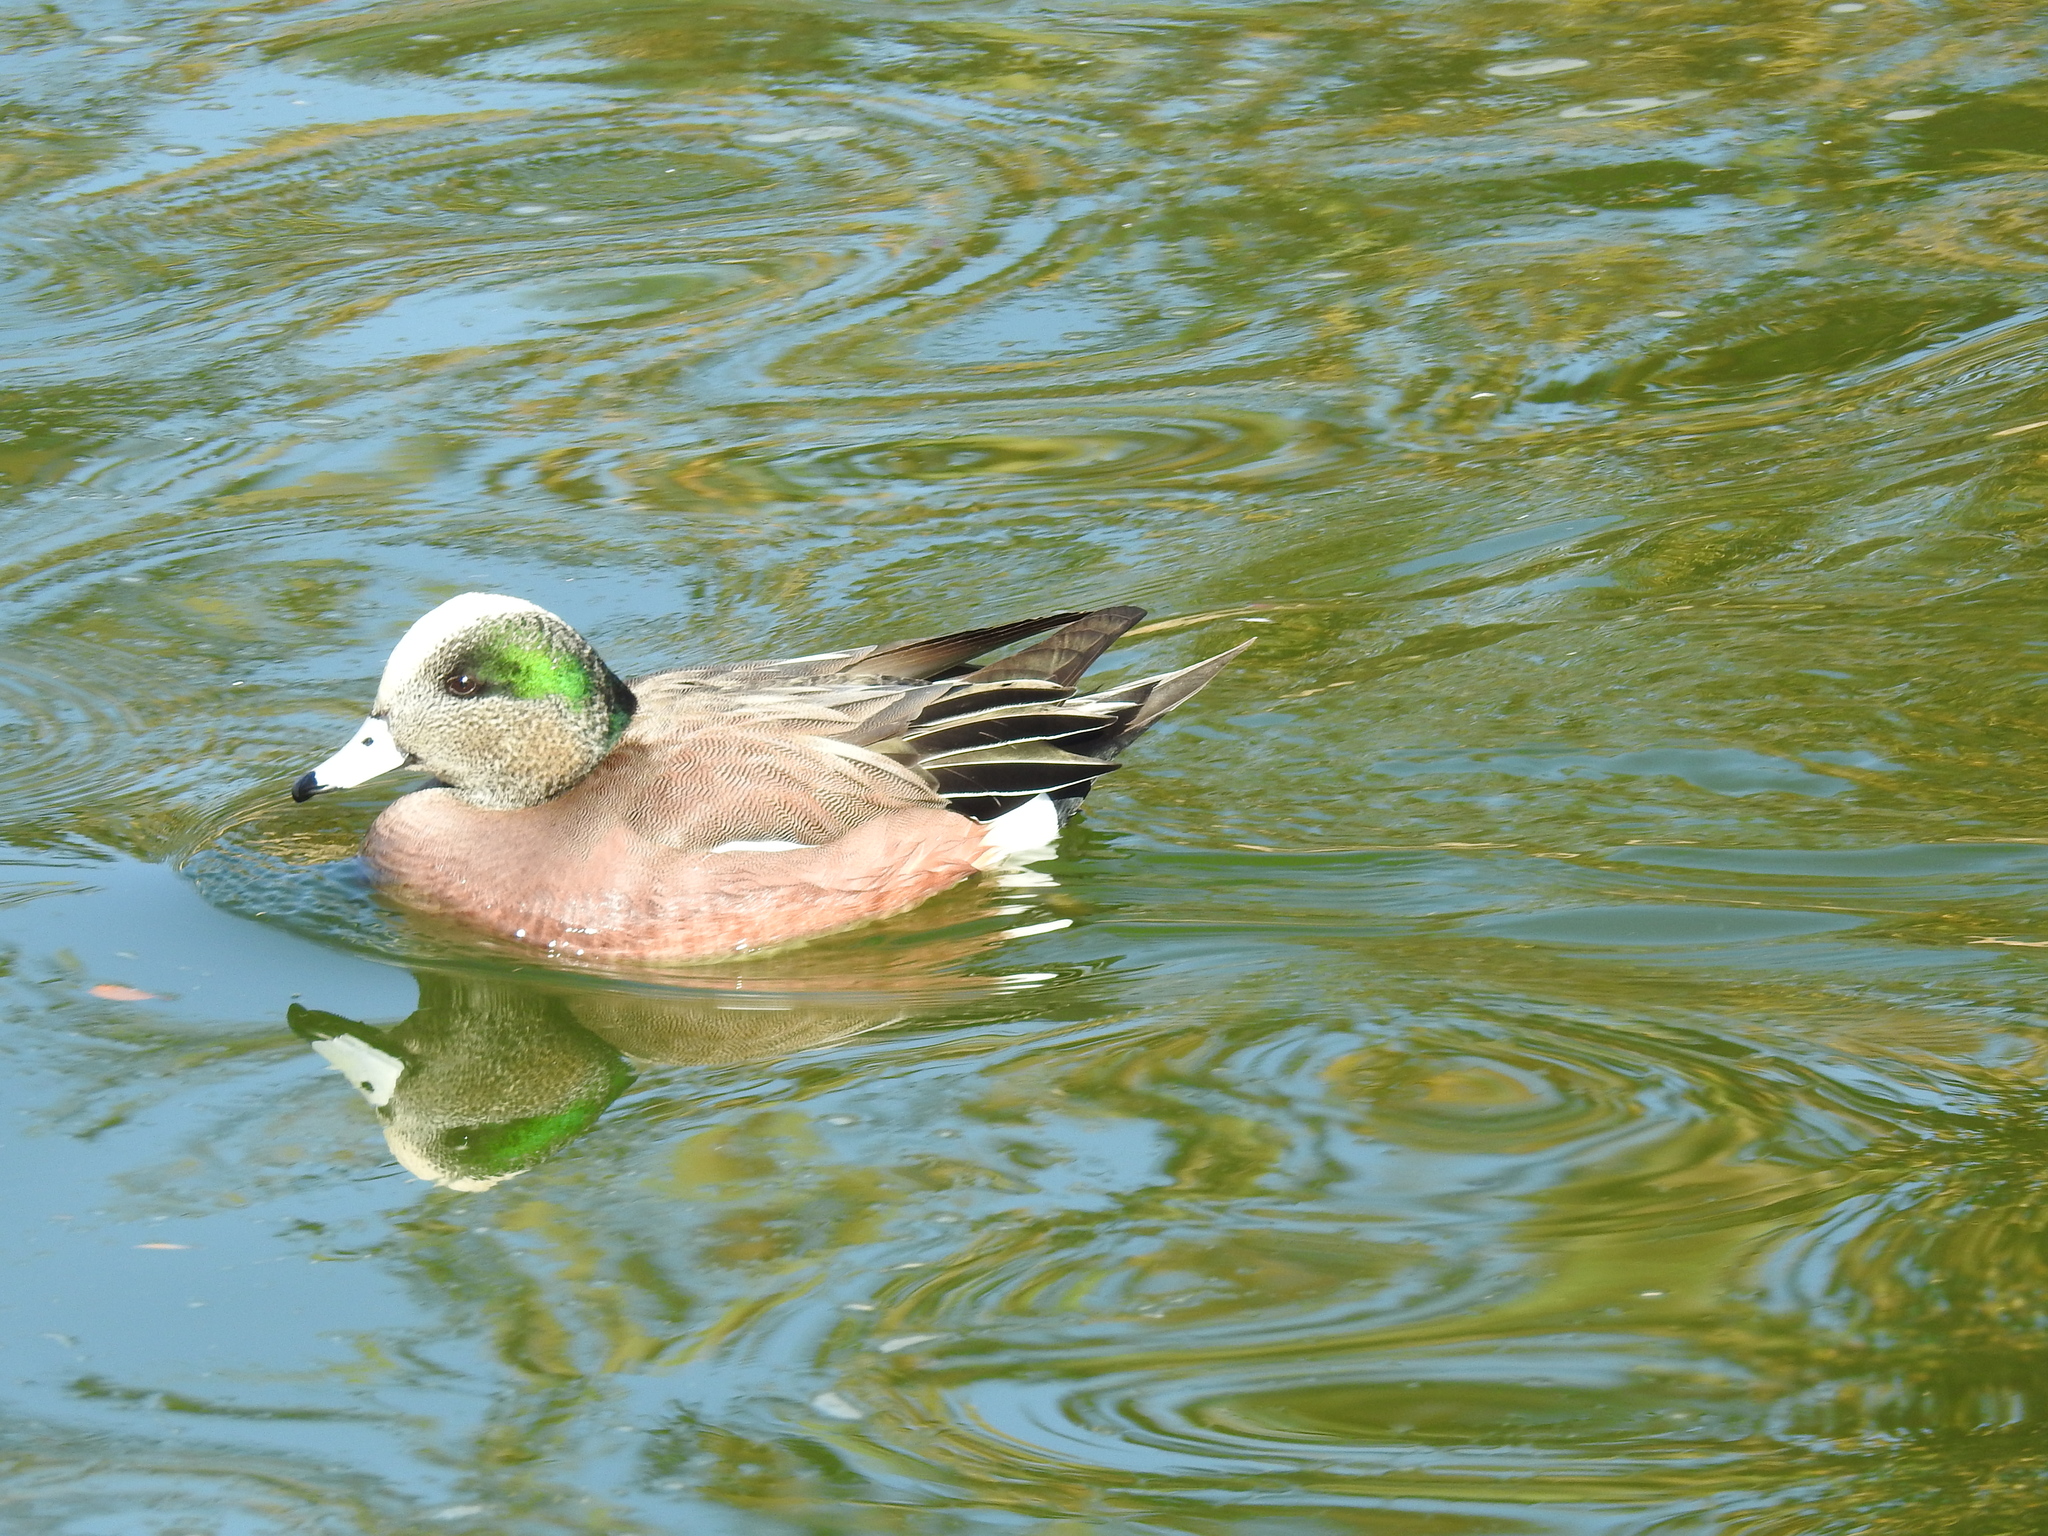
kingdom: Animalia
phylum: Chordata
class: Aves
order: Anseriformes
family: Anatidae
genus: Mareca
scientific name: Mareca americana
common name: American wigeon
